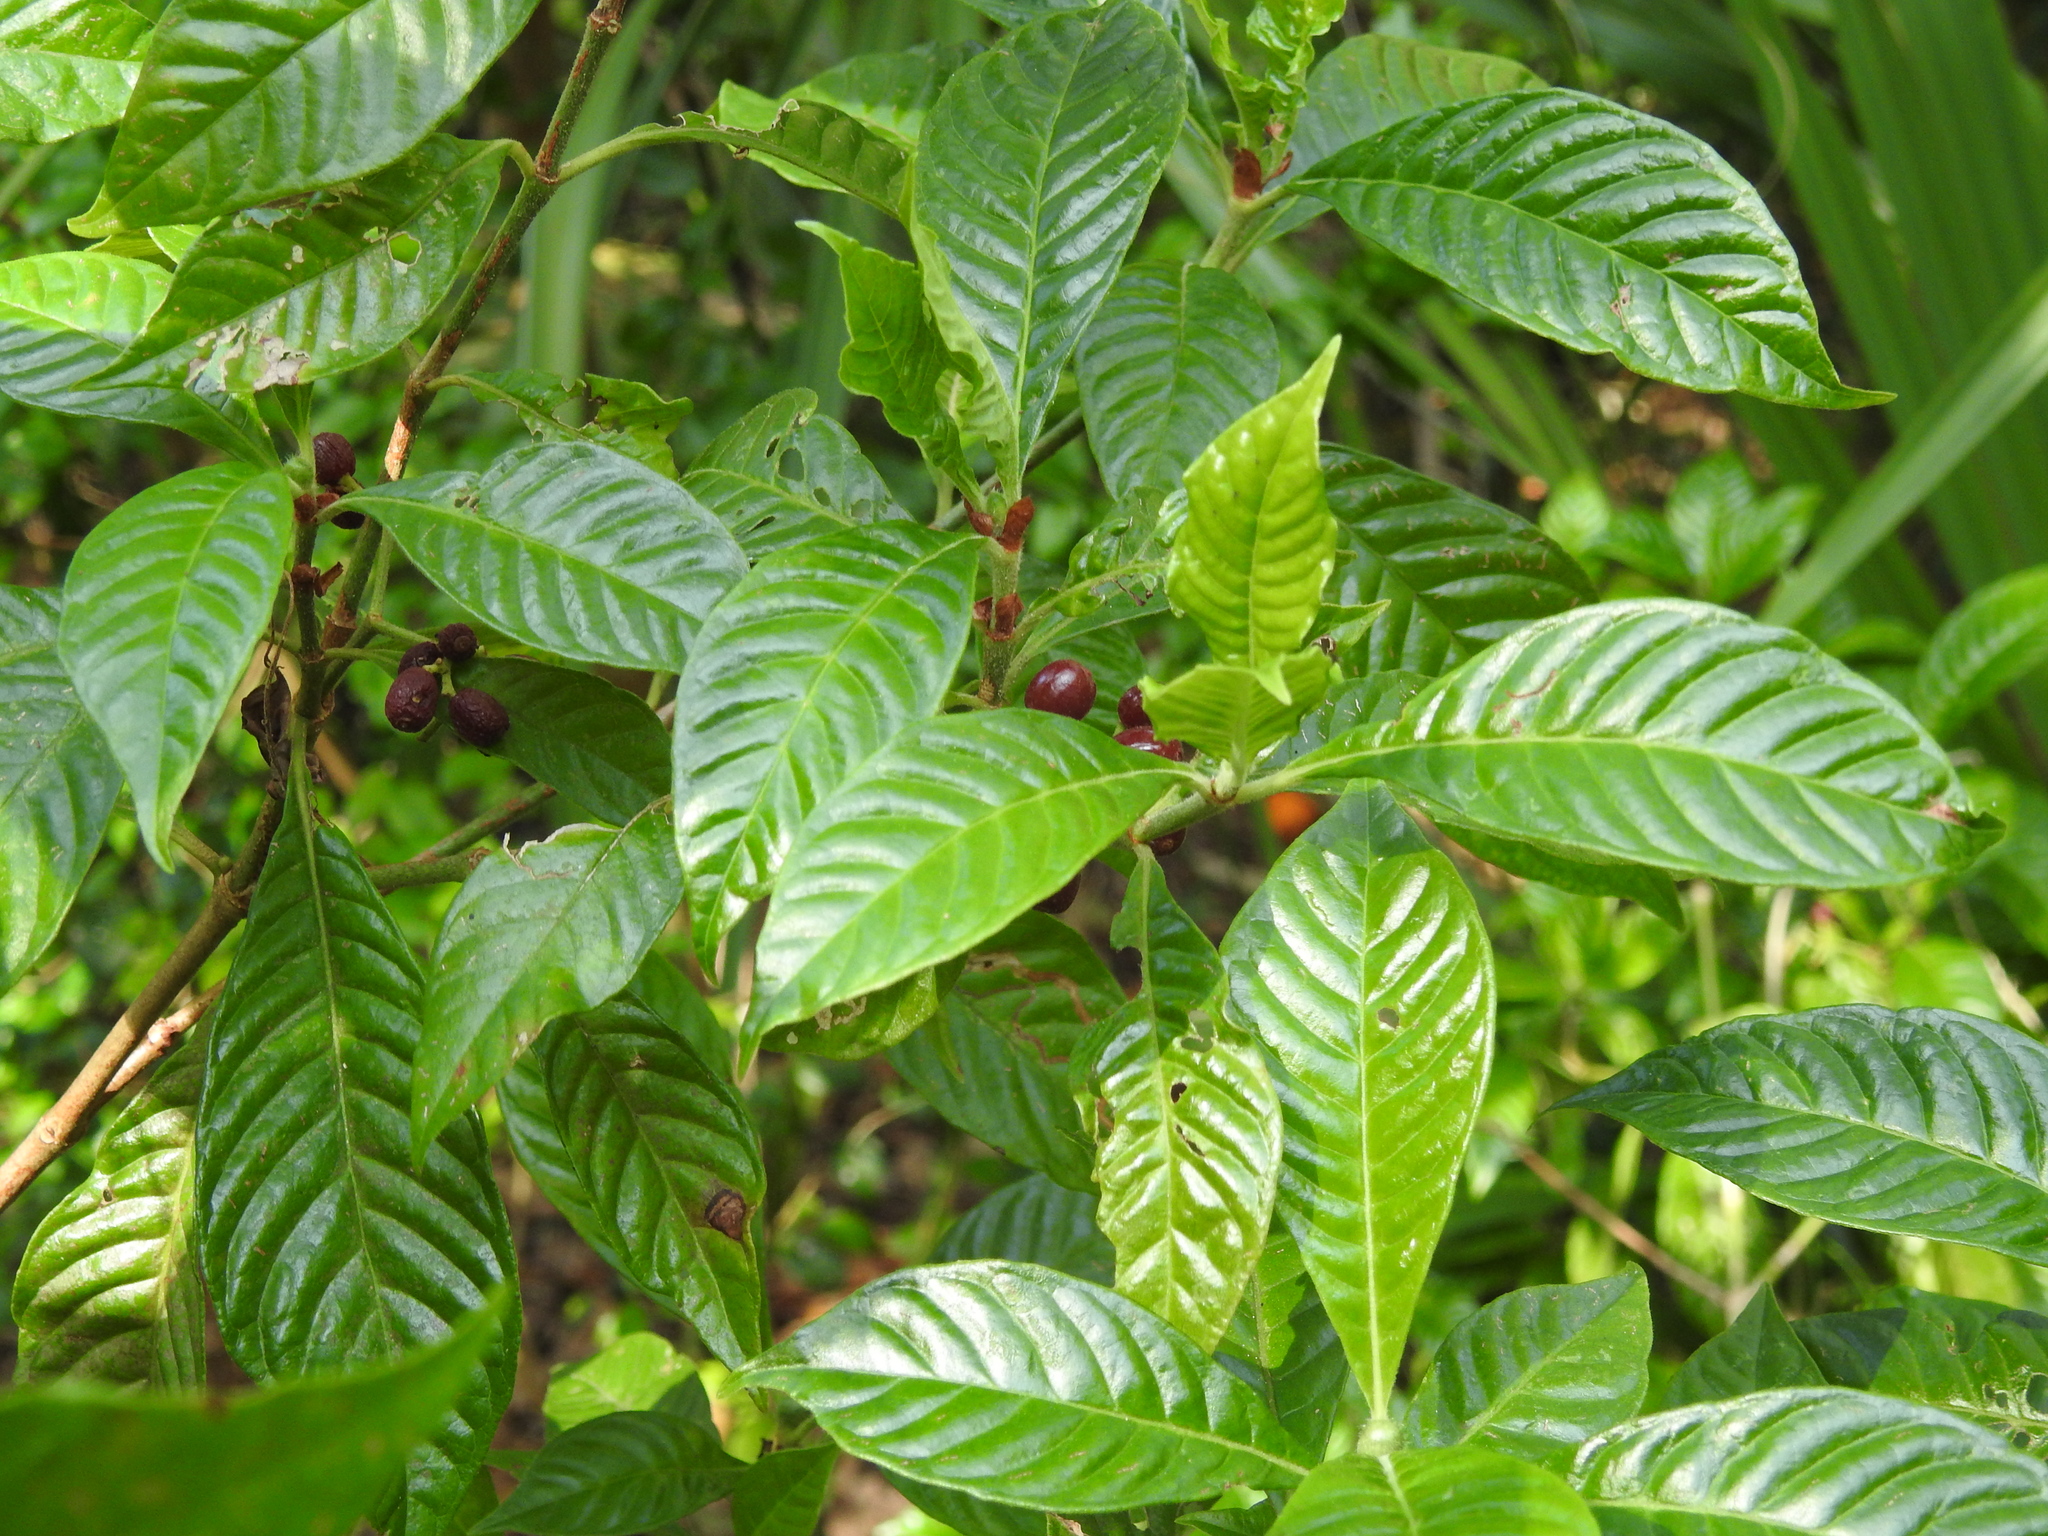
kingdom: Plantae
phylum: Tracheophyta
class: Magnoliopsida
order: Gentianales
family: Rubiaceae
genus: Psychotria
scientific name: Psychotria nervosa
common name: Bastard cankerberry
